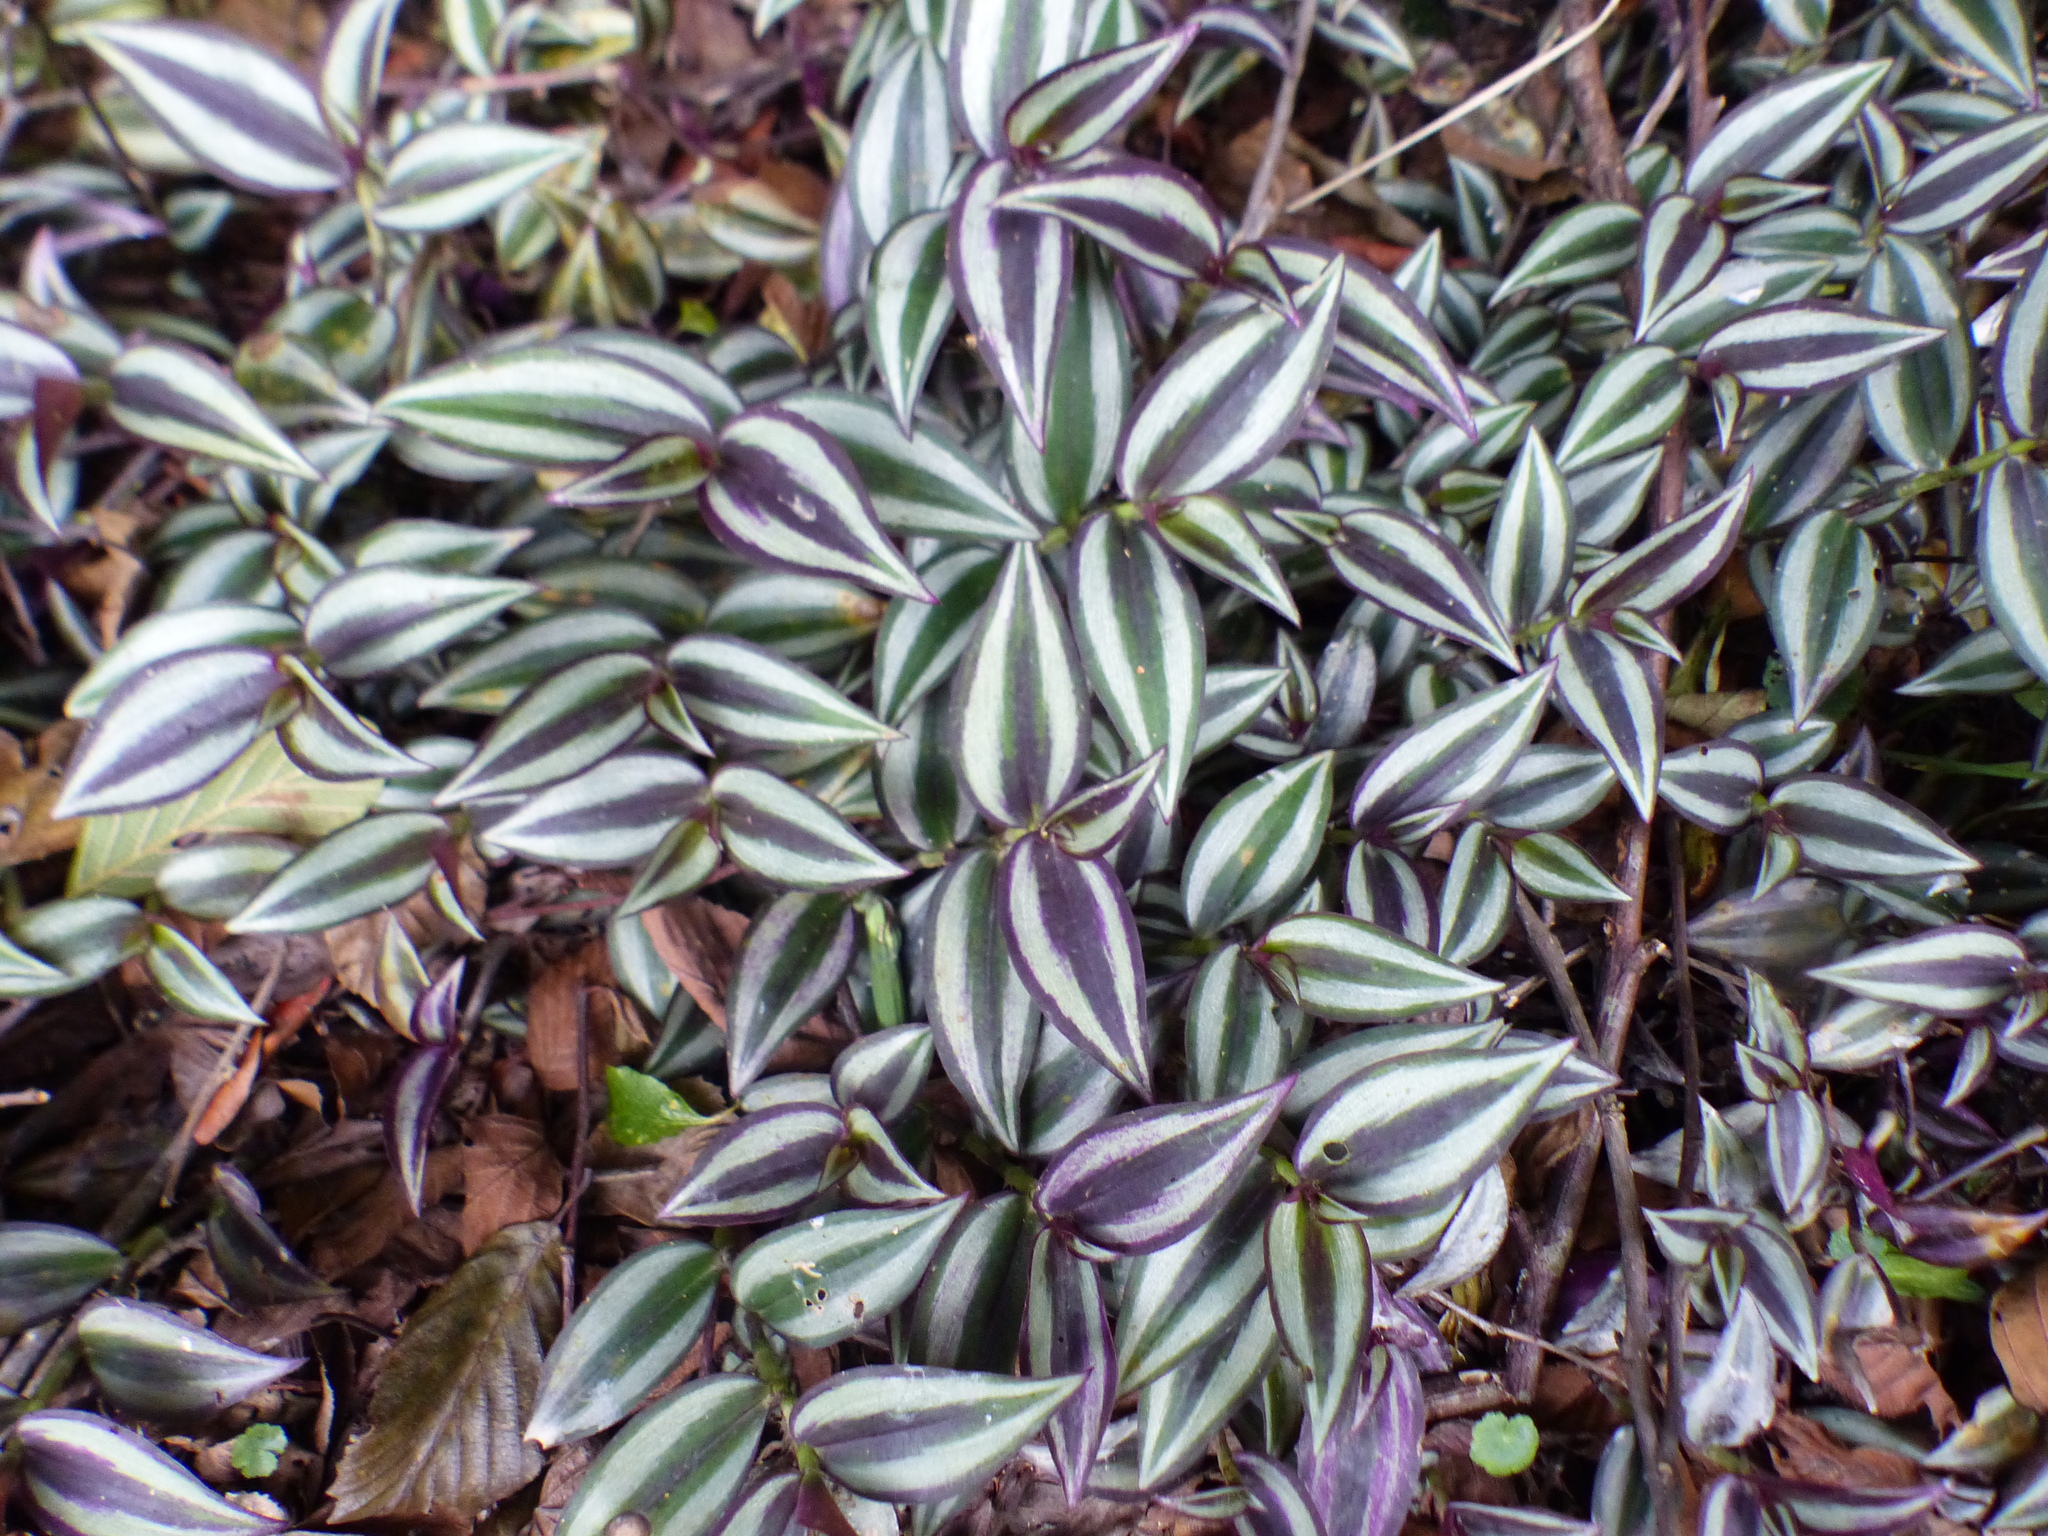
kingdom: Plantae
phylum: Tracheophyta
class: Liliopsida
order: Commelinales
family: Commelinaceae
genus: Tradescantia
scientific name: Tradescantia zebrina
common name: Inchplant
